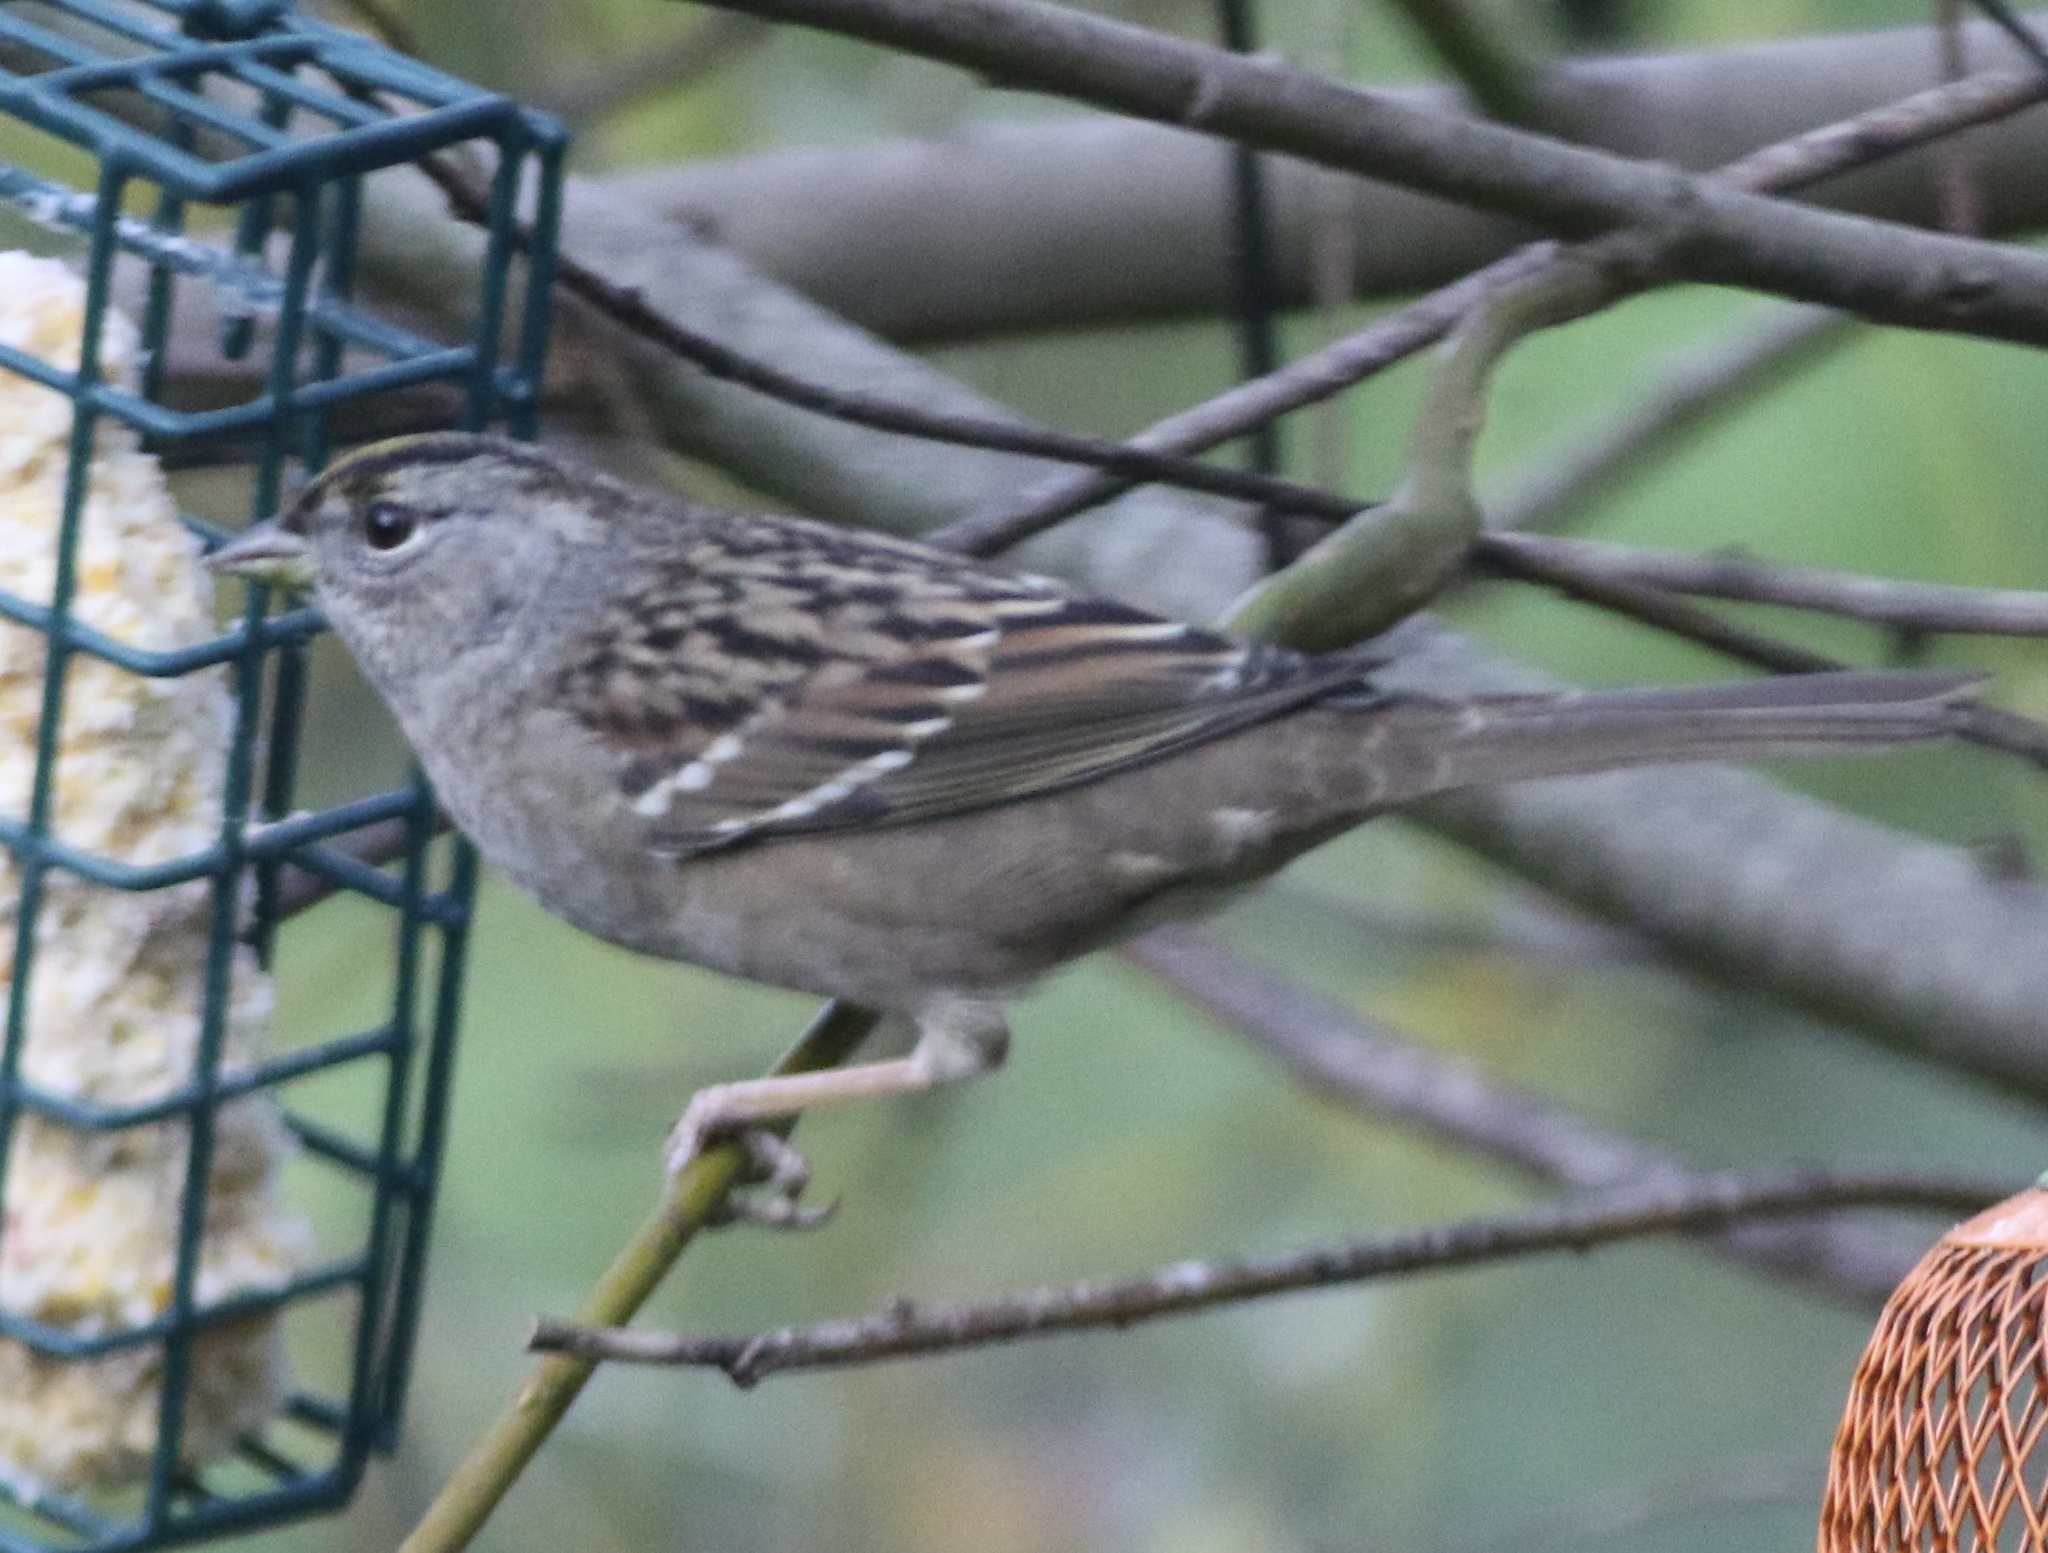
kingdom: Animalia
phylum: Chordata
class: Aves
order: Passeriformes
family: Passerellidae
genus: Zonotrichia
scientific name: Zonotrichia atricapilla
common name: Golden-crowned sparrow
